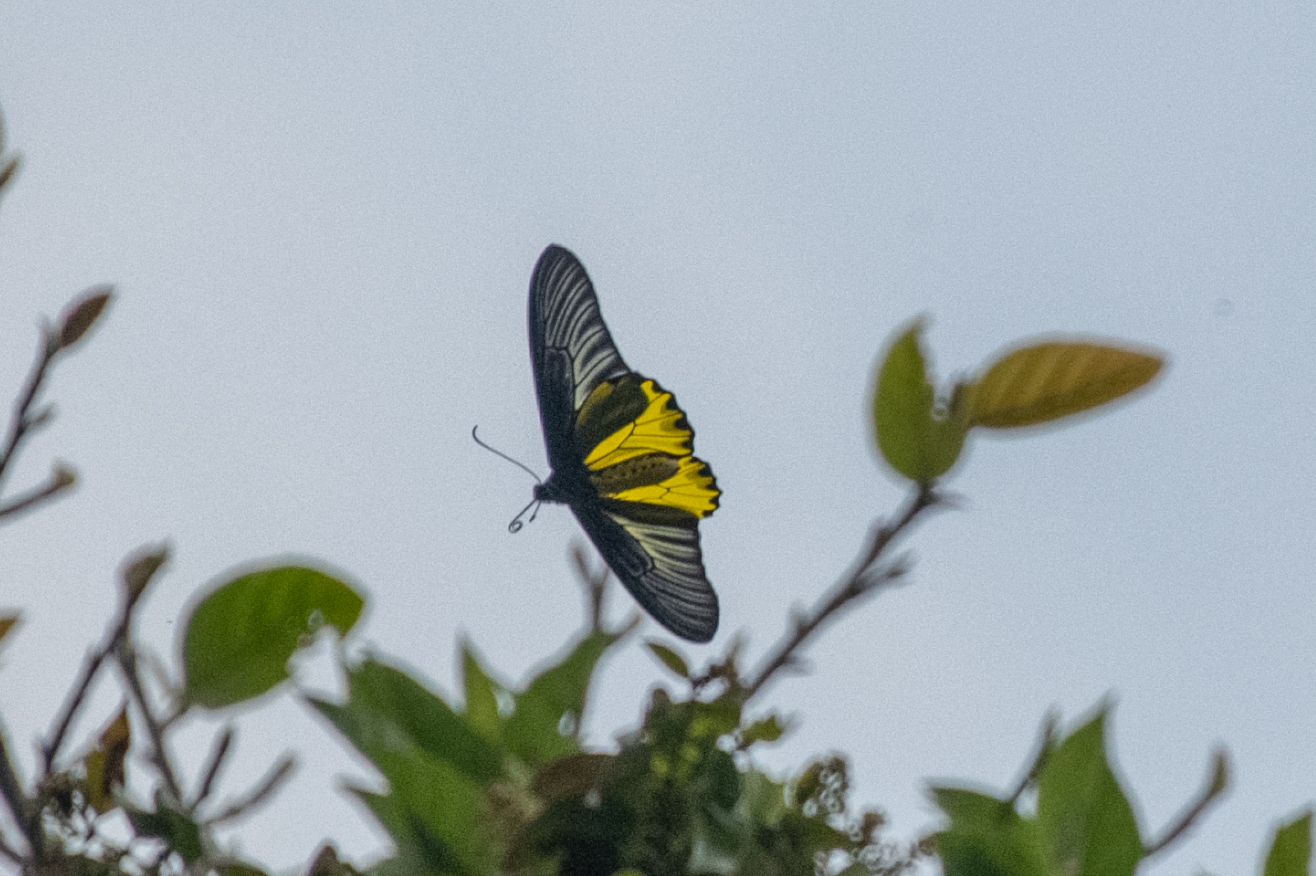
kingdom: Animalia
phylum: Arthropoda
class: Insecta
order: Lepidoptera
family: Papilionidae
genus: Troides
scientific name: Troides aeacus
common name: Golden birdwing
